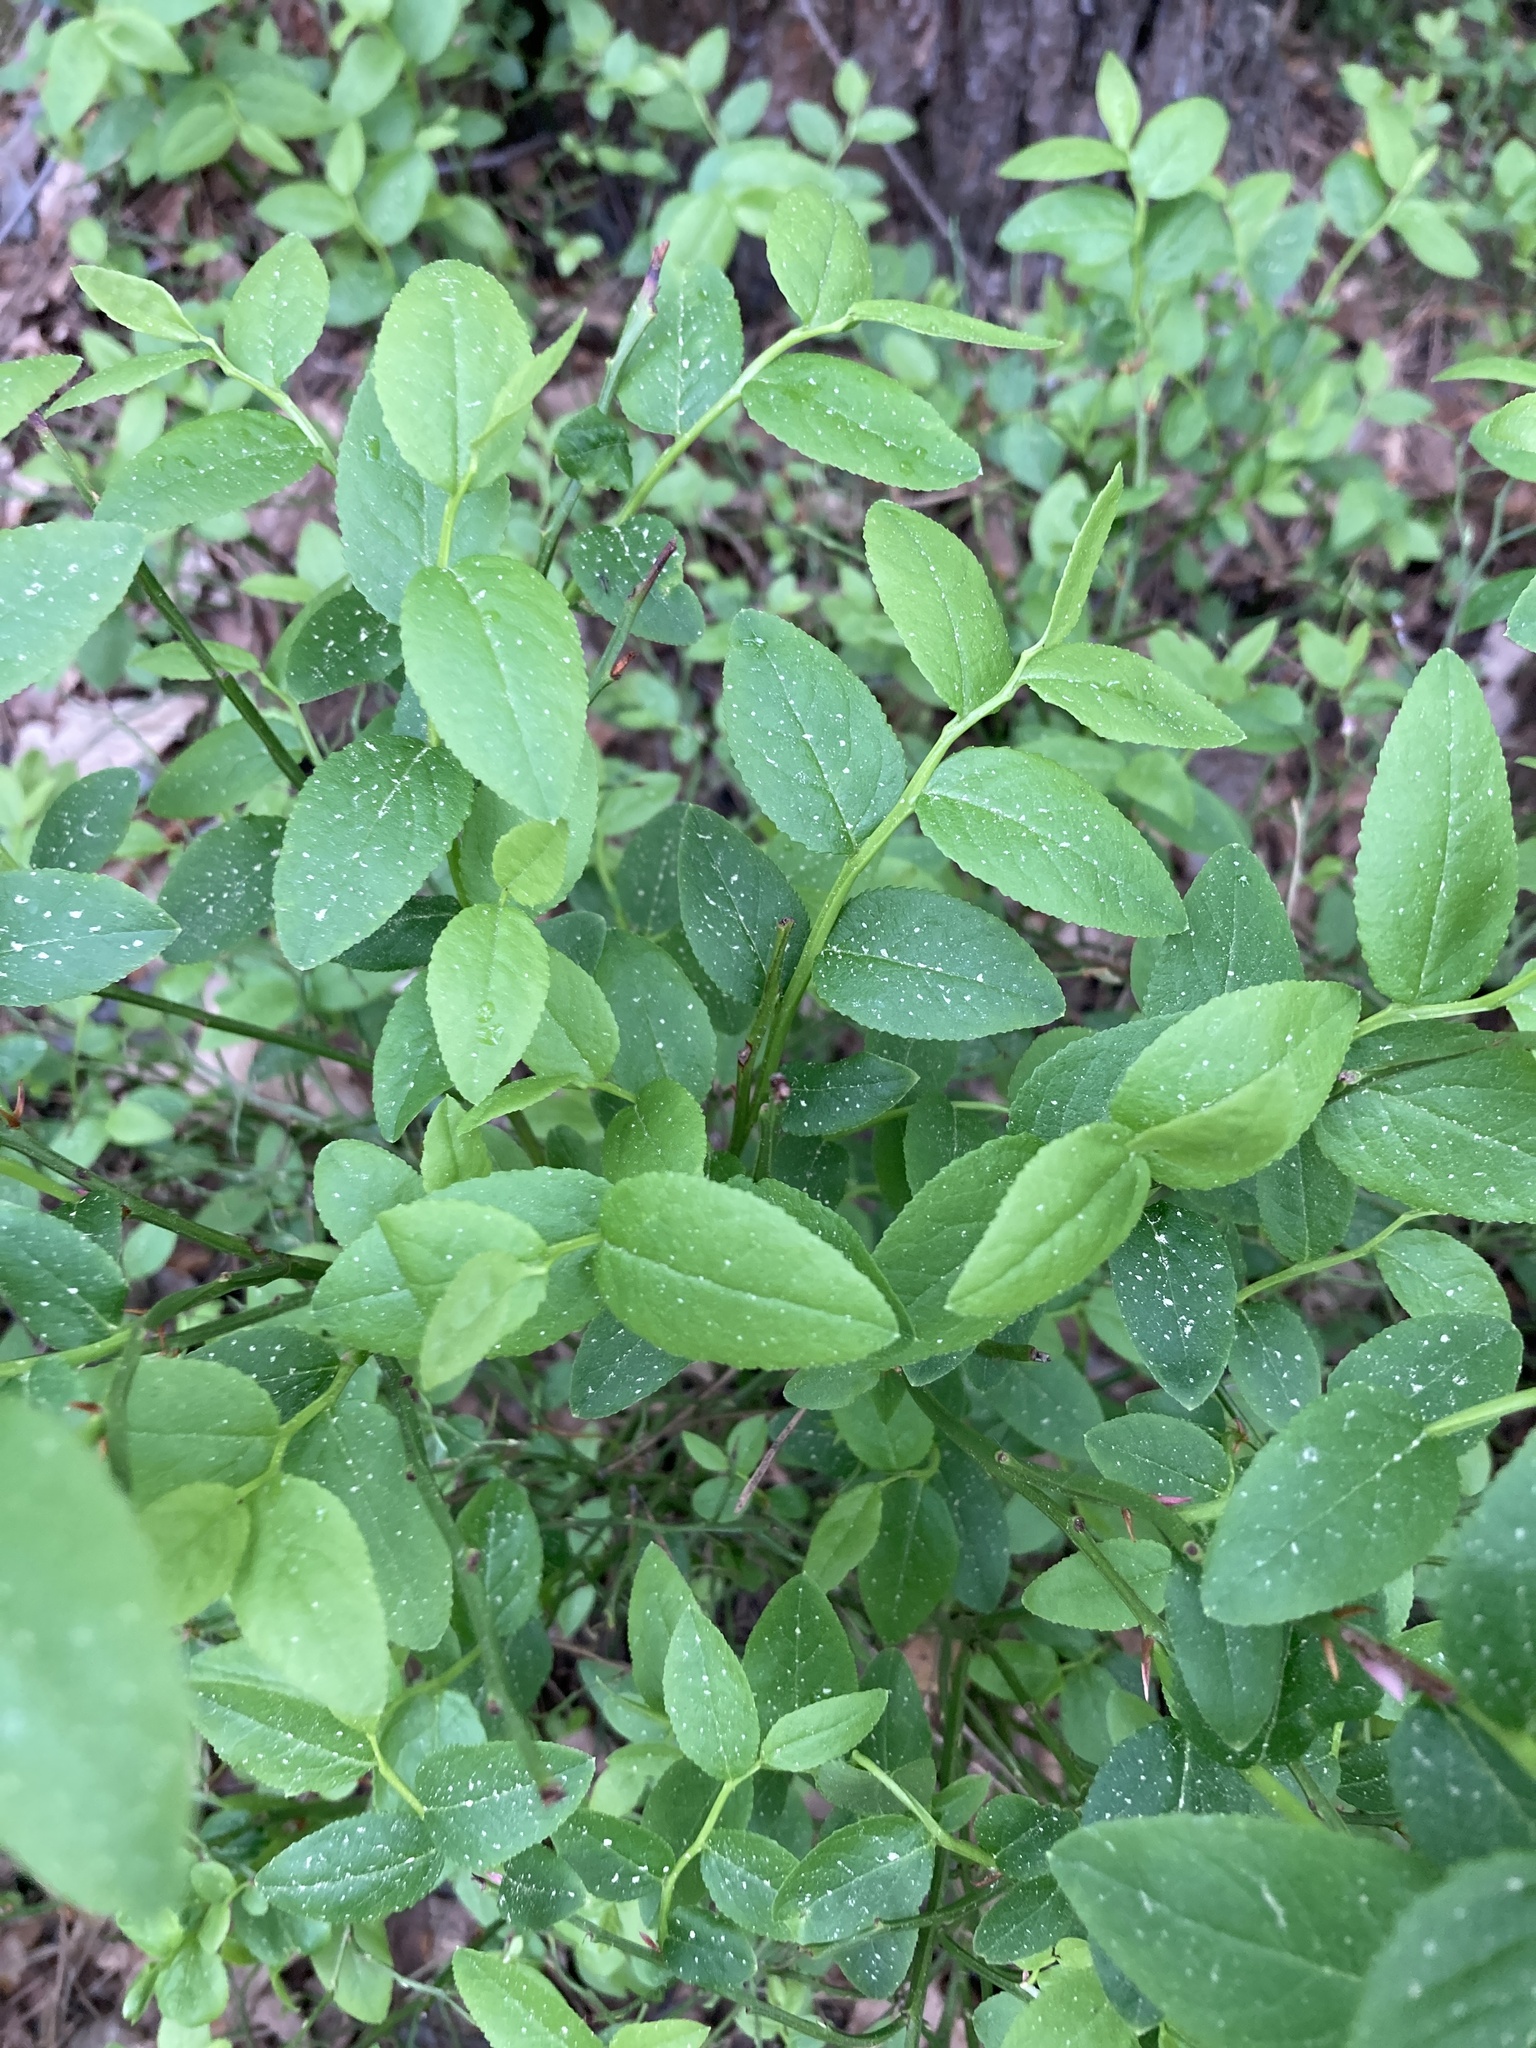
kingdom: Plantae
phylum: Tracheophyta
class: Magnoliopsida
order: Ericales
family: Ericaceae
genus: Vaccinium
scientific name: Vaccinium myrtillus
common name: Bilberry
